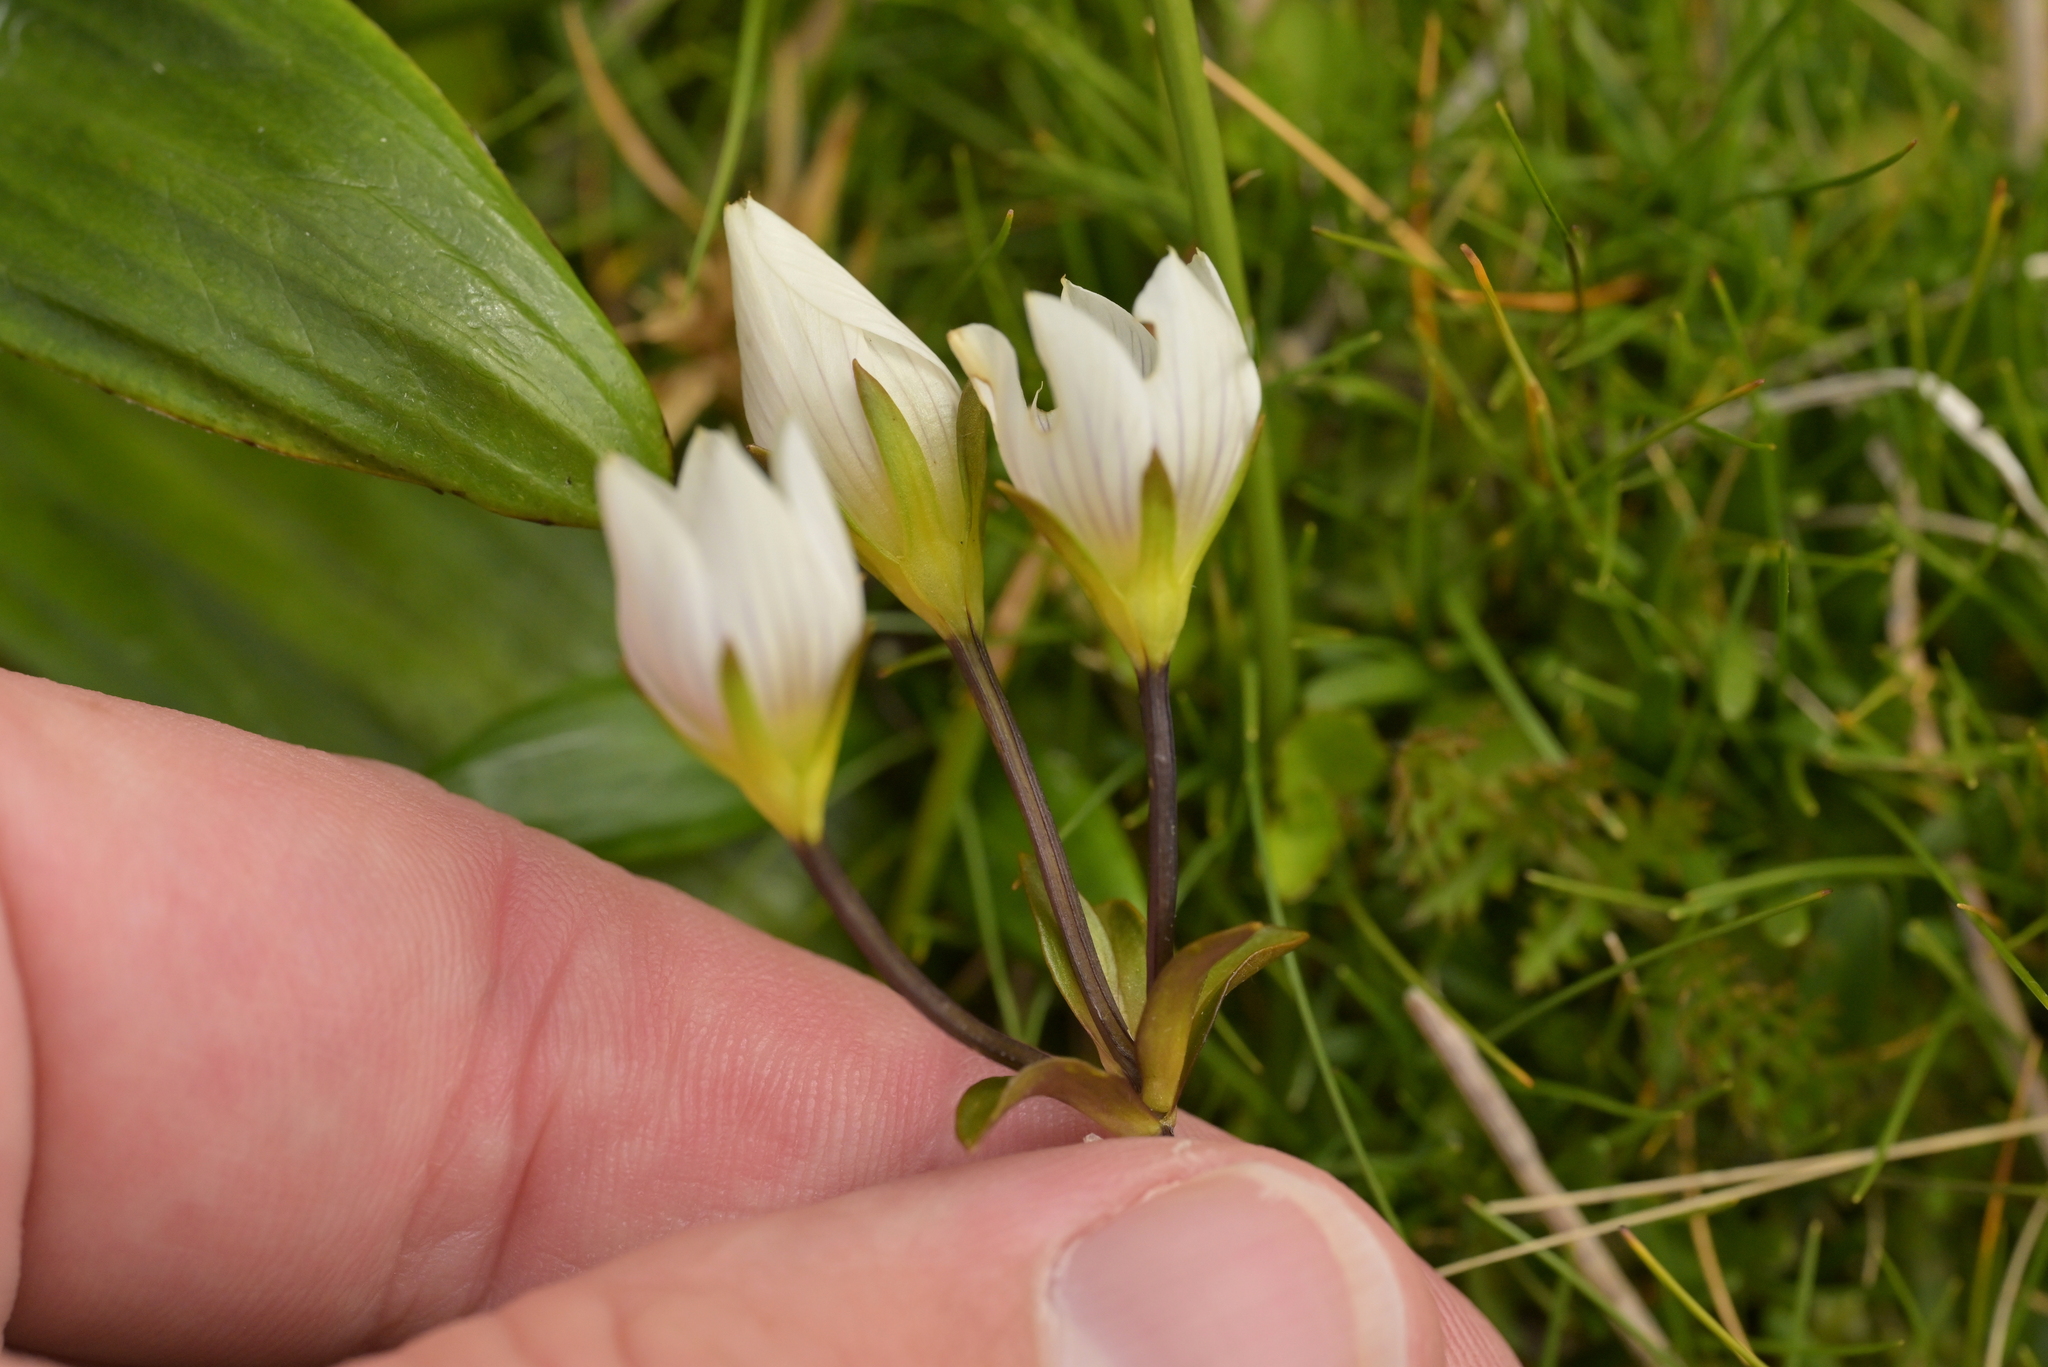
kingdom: Plantae
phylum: Tracheophyta
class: Magnoliopsida
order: Gentianales
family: Gentianaceae
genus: Gentianella
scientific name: Gentianella montana
